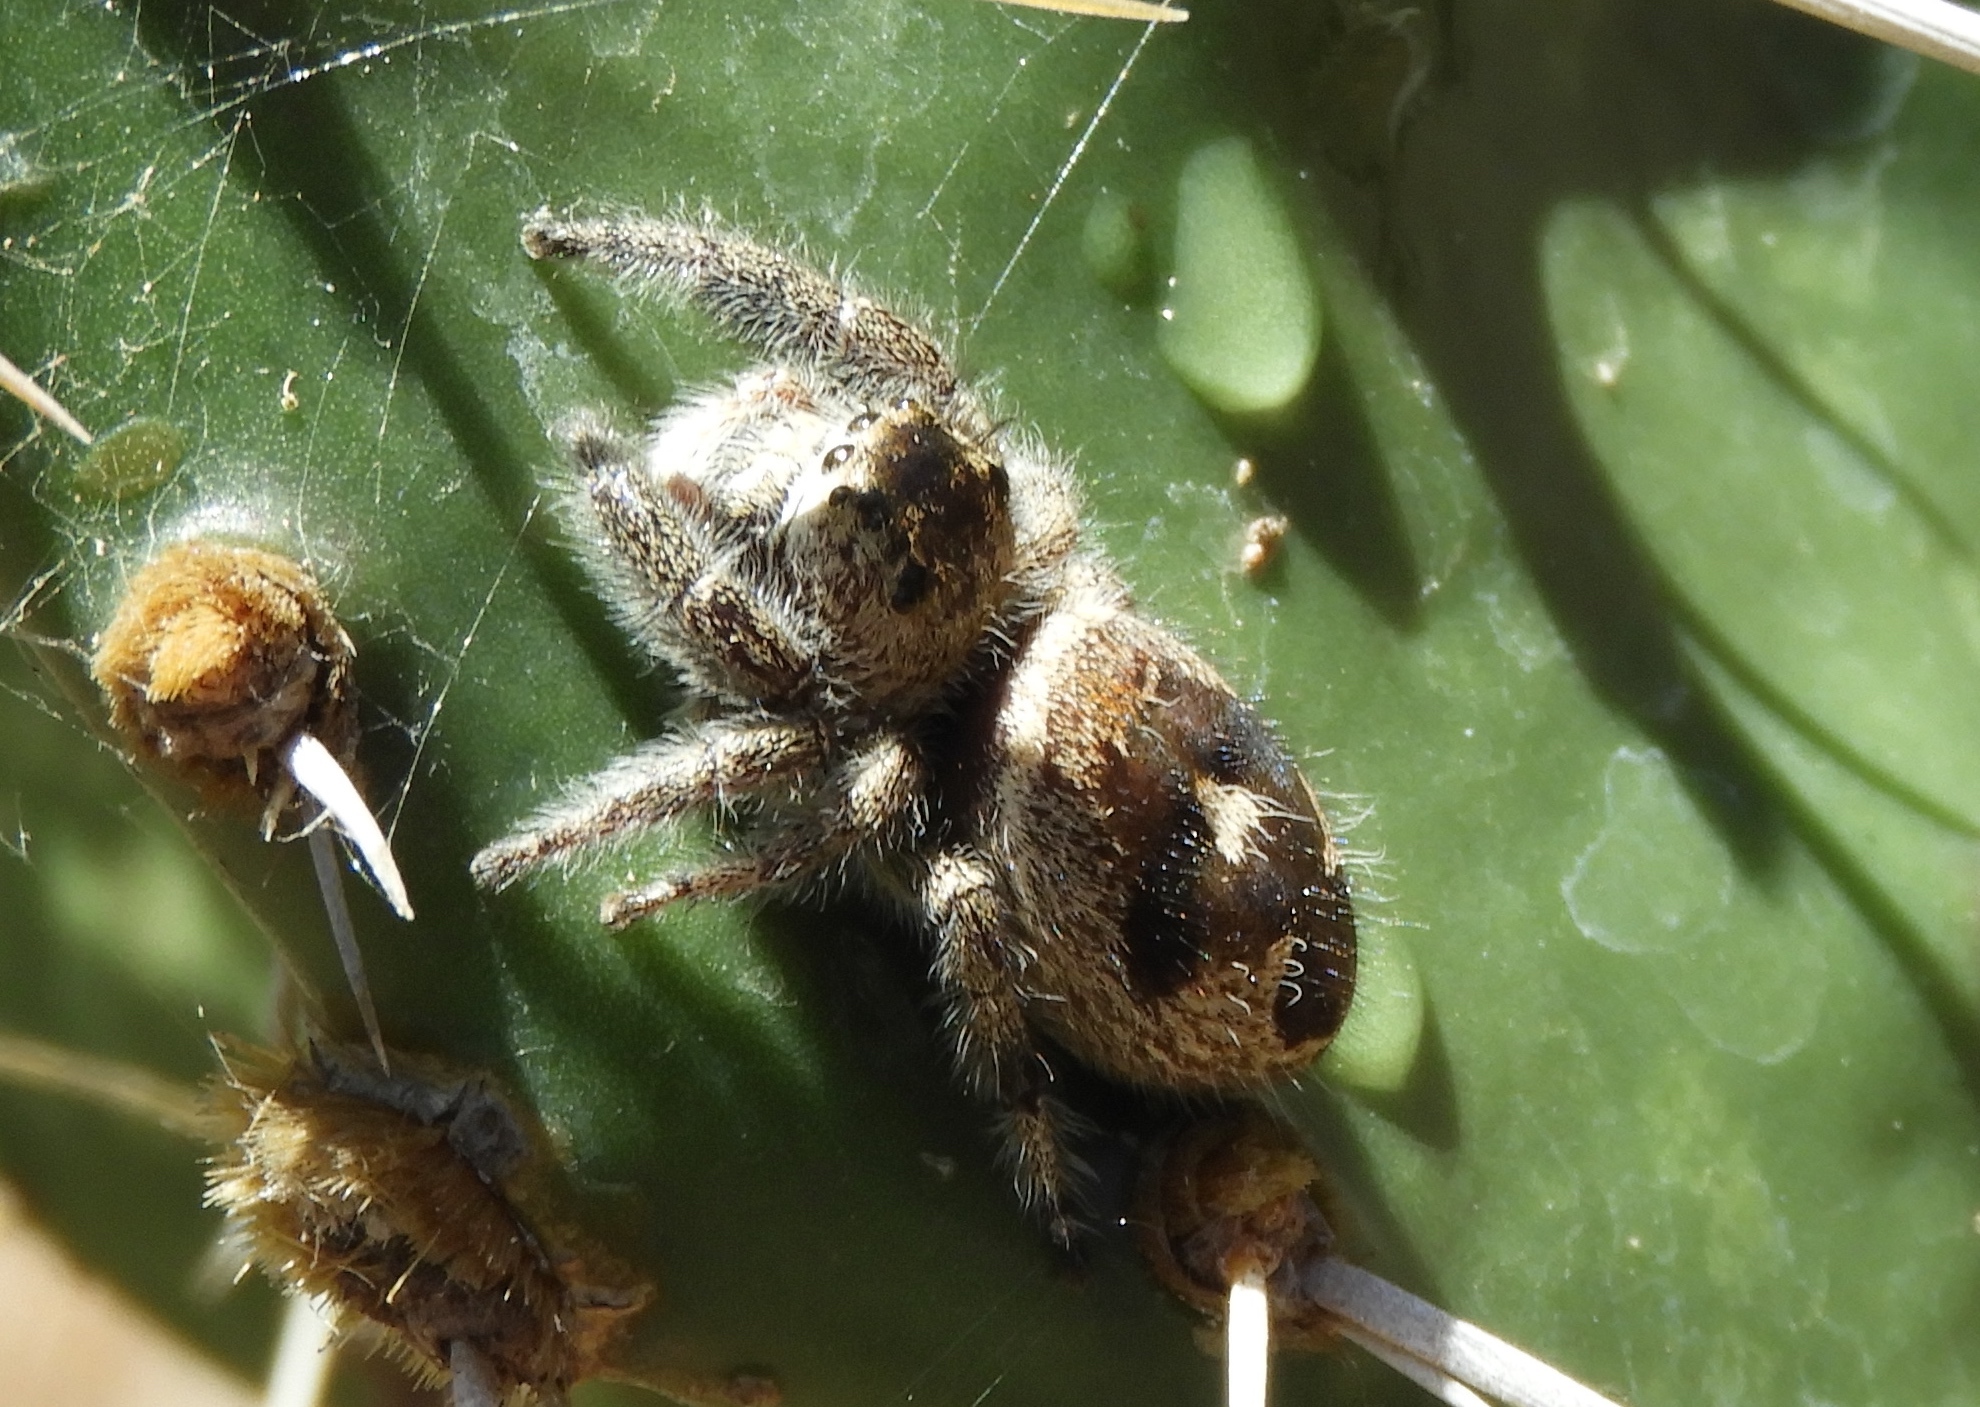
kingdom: Animalia
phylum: Arthropoda
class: Arachnida
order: Araneae
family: Salticidae
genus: Phidippus
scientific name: Phidippus maddisoni
